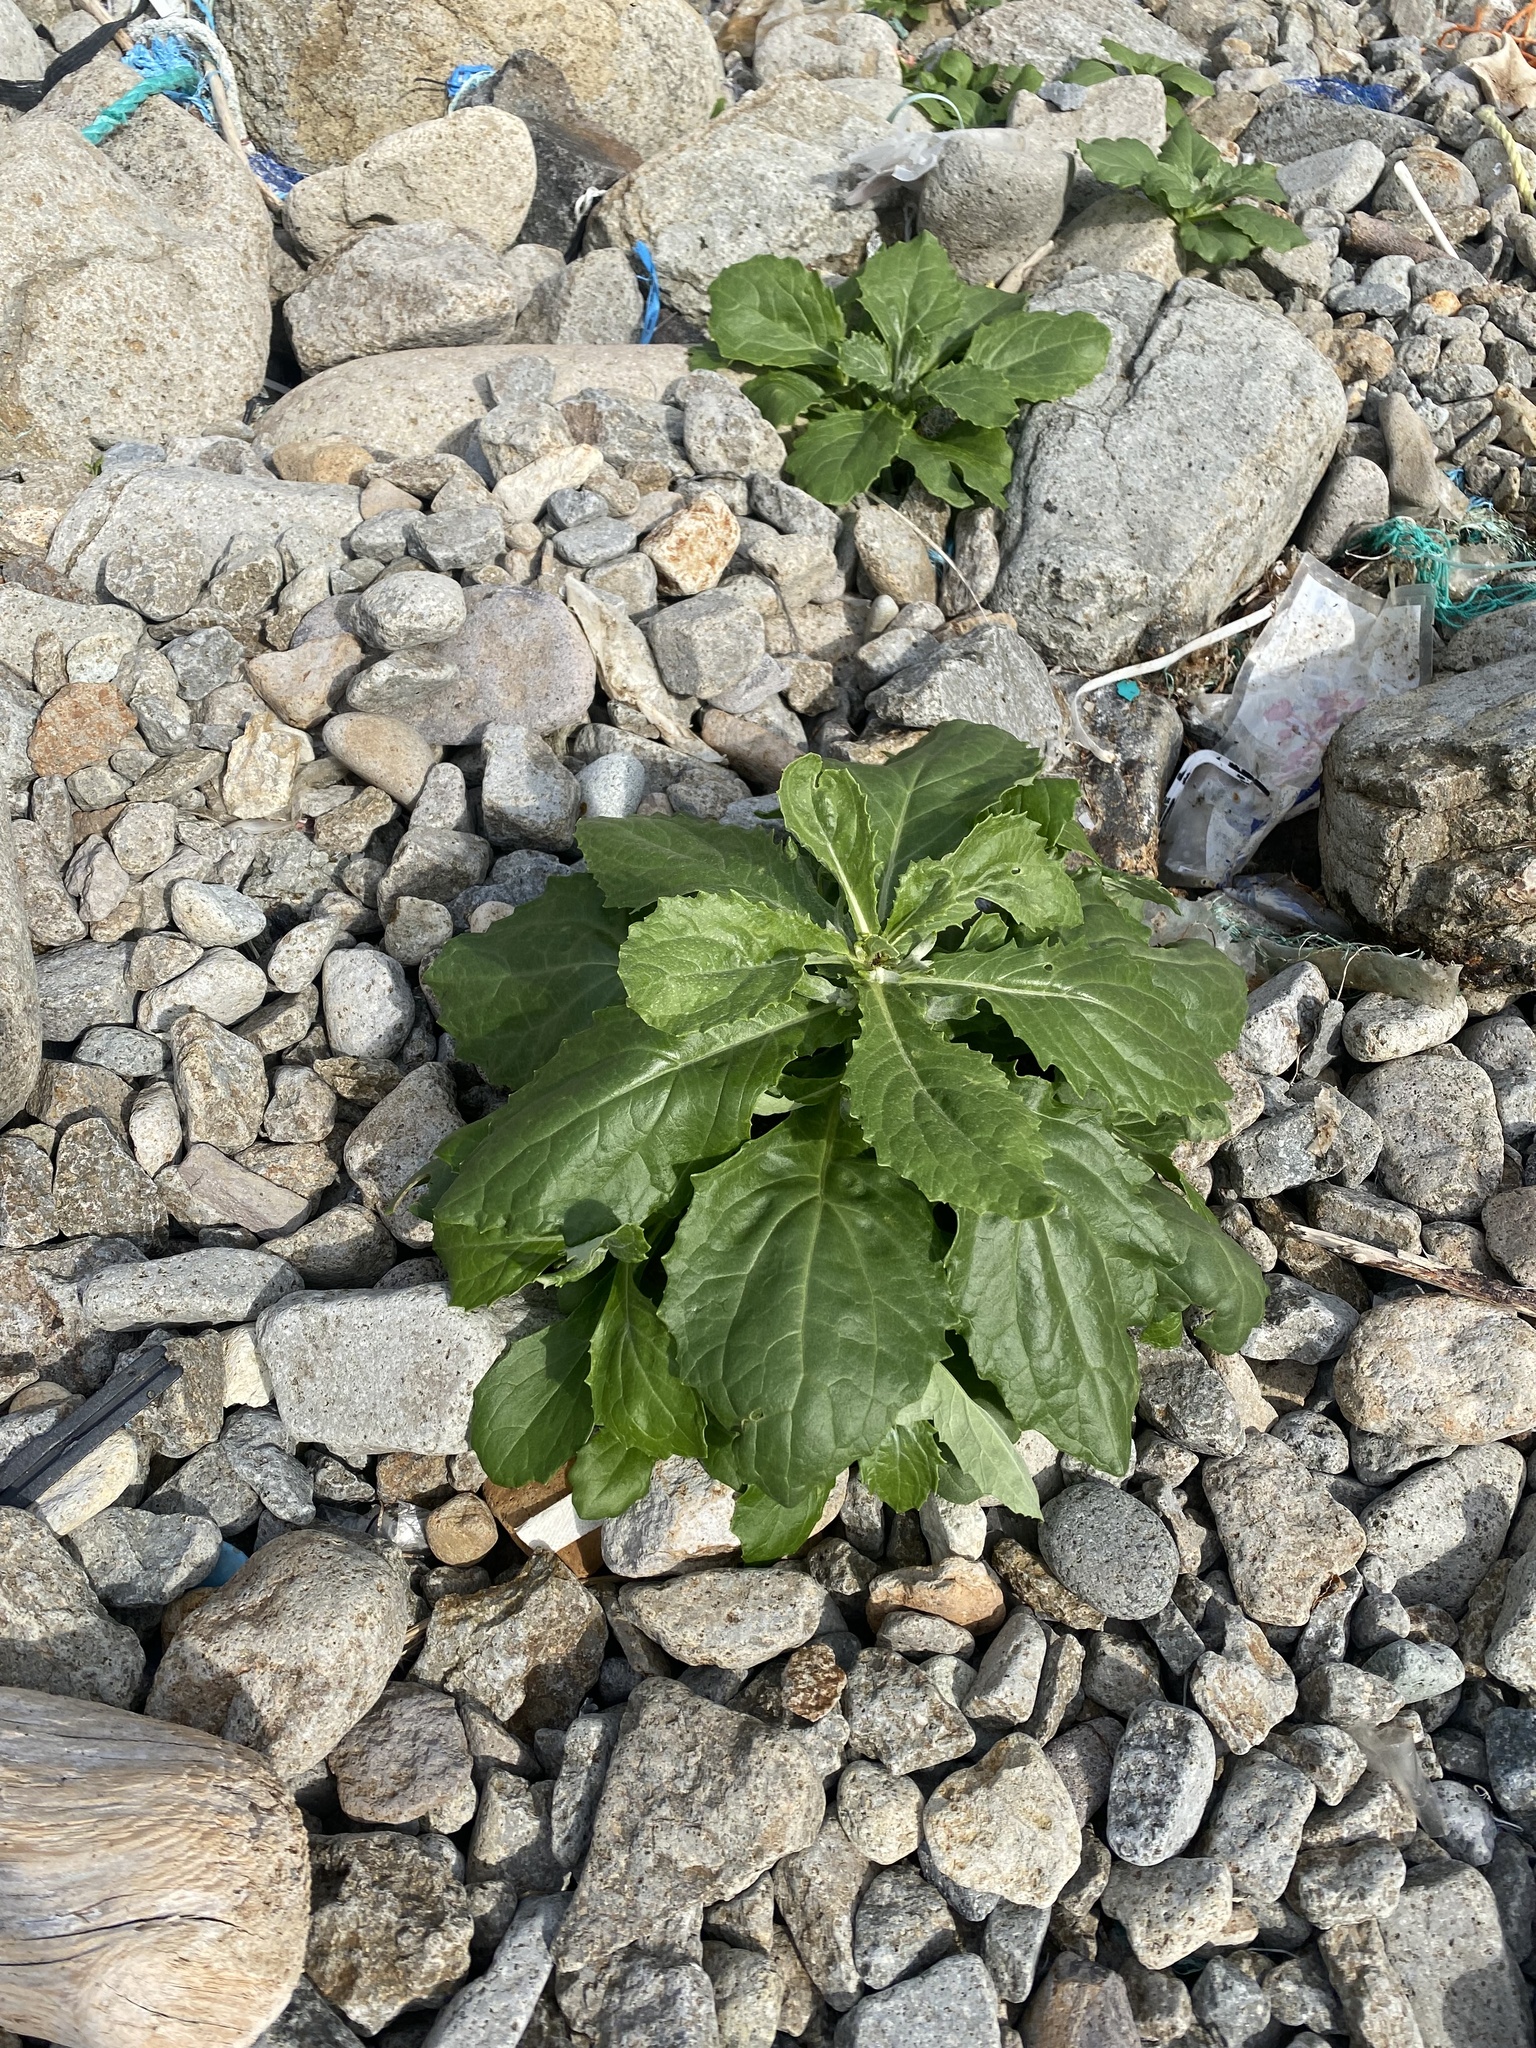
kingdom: Plantae
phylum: Tracheophyta
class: Magnoliopsida
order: Asterales
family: Asteraceae
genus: Jacobaea
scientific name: Jacobaea pseudoarnica
